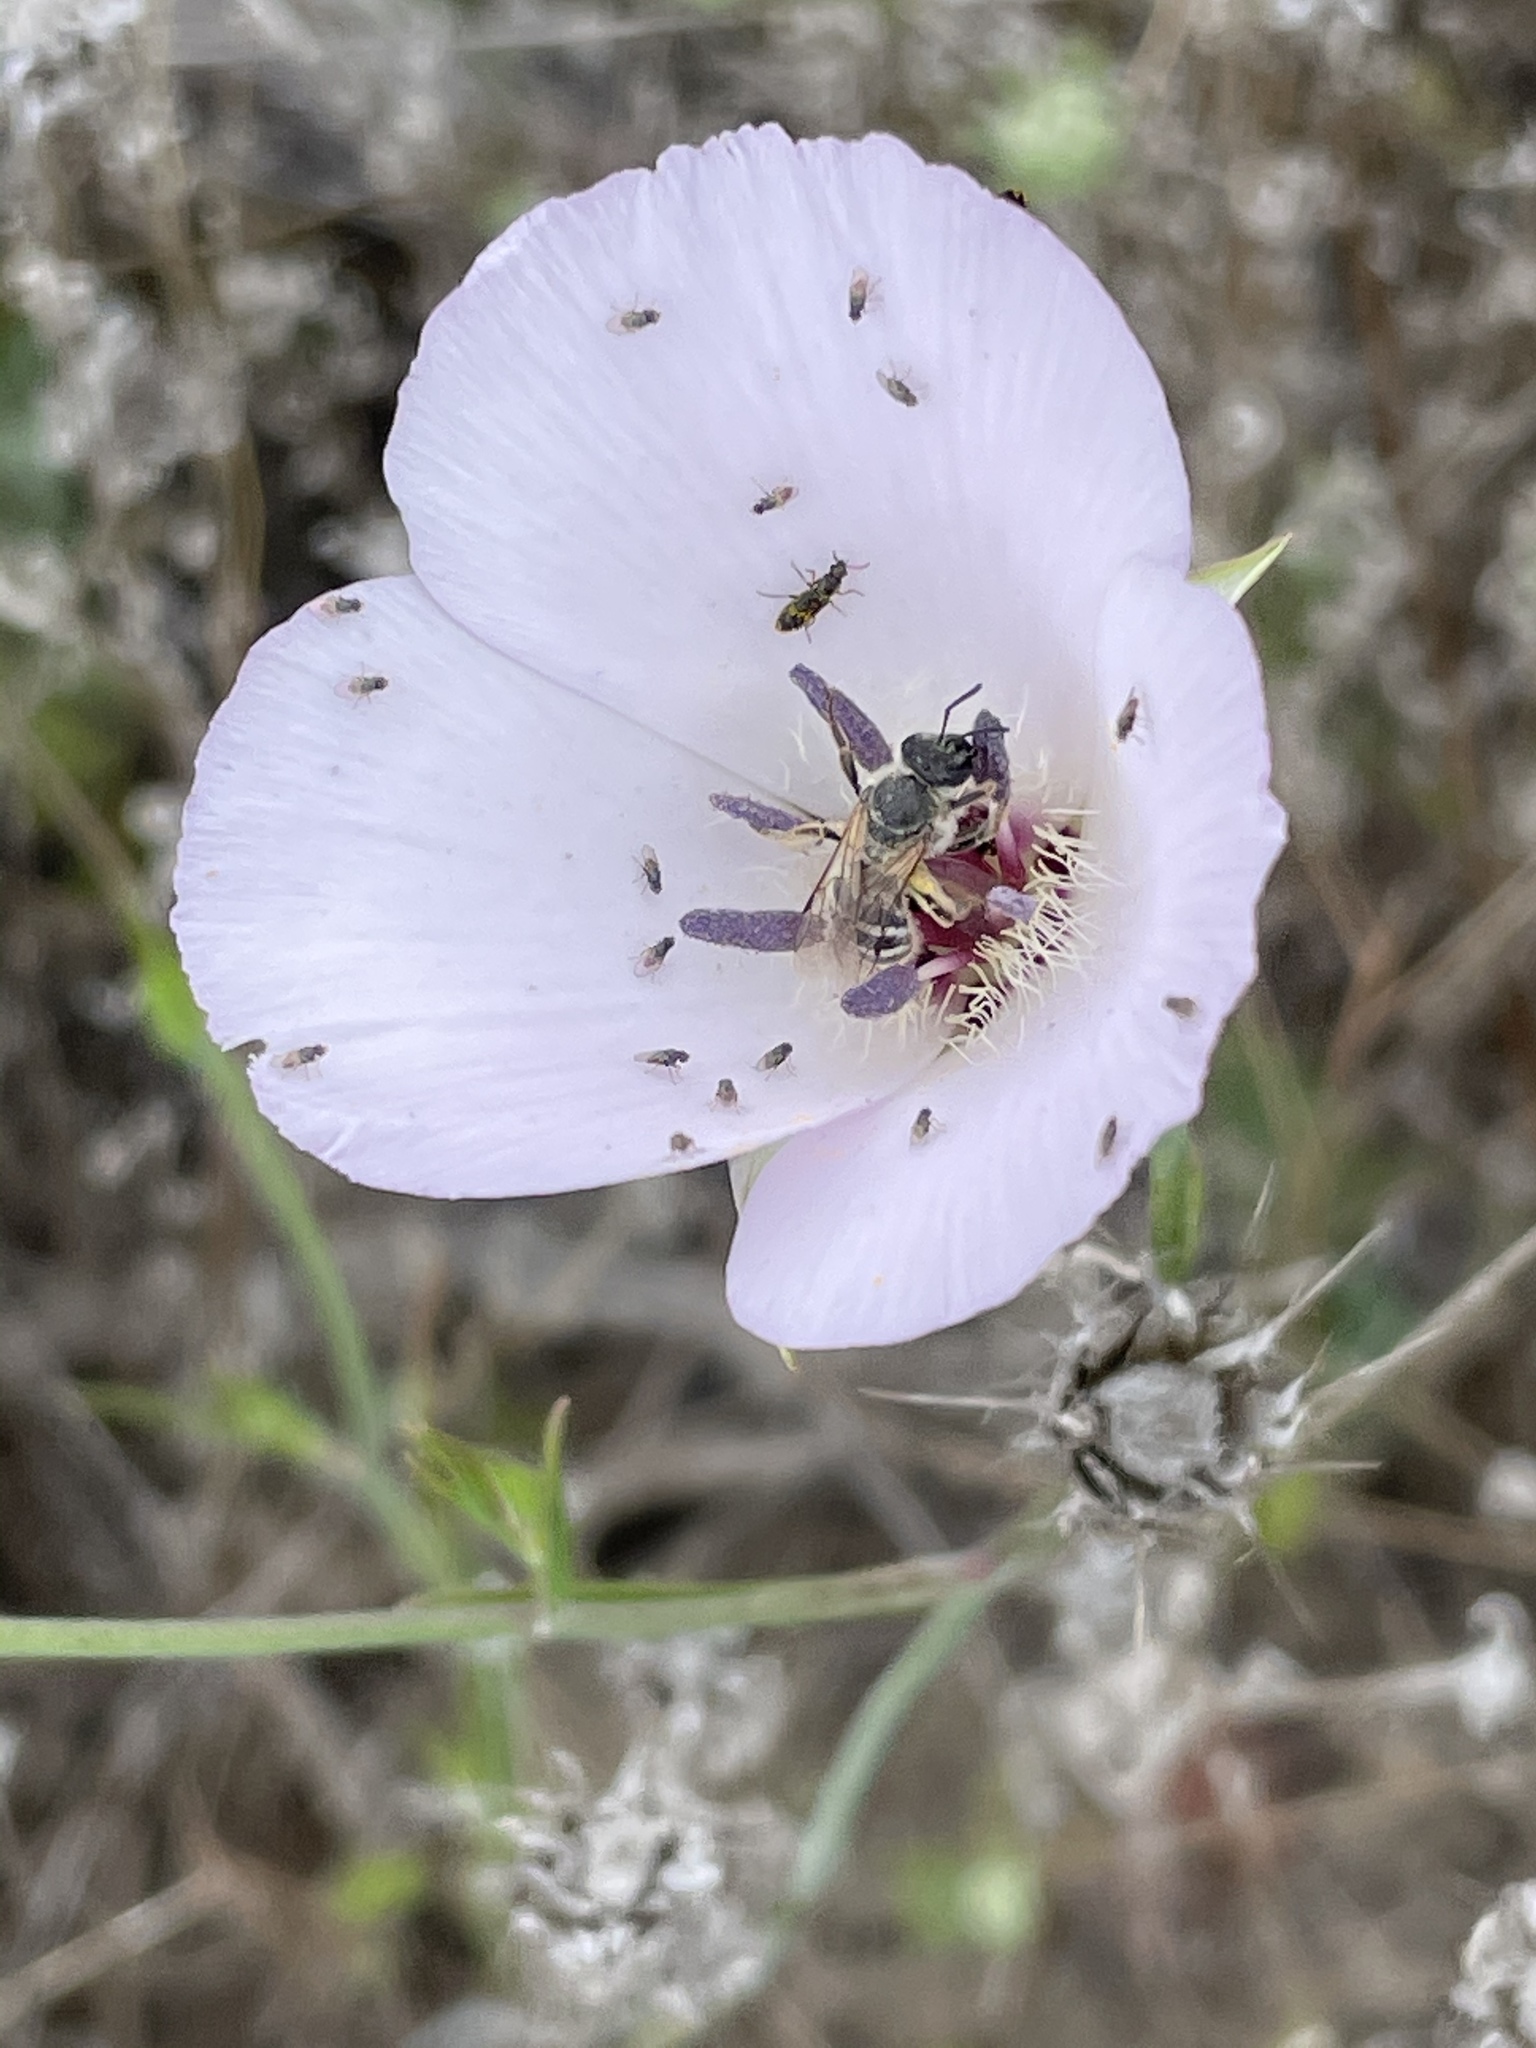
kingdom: Animalia
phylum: Arthropoda
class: Insecta
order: Hymenoptera
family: Halictidae
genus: Lasioglossum
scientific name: Lasioglossum sisymbrii
